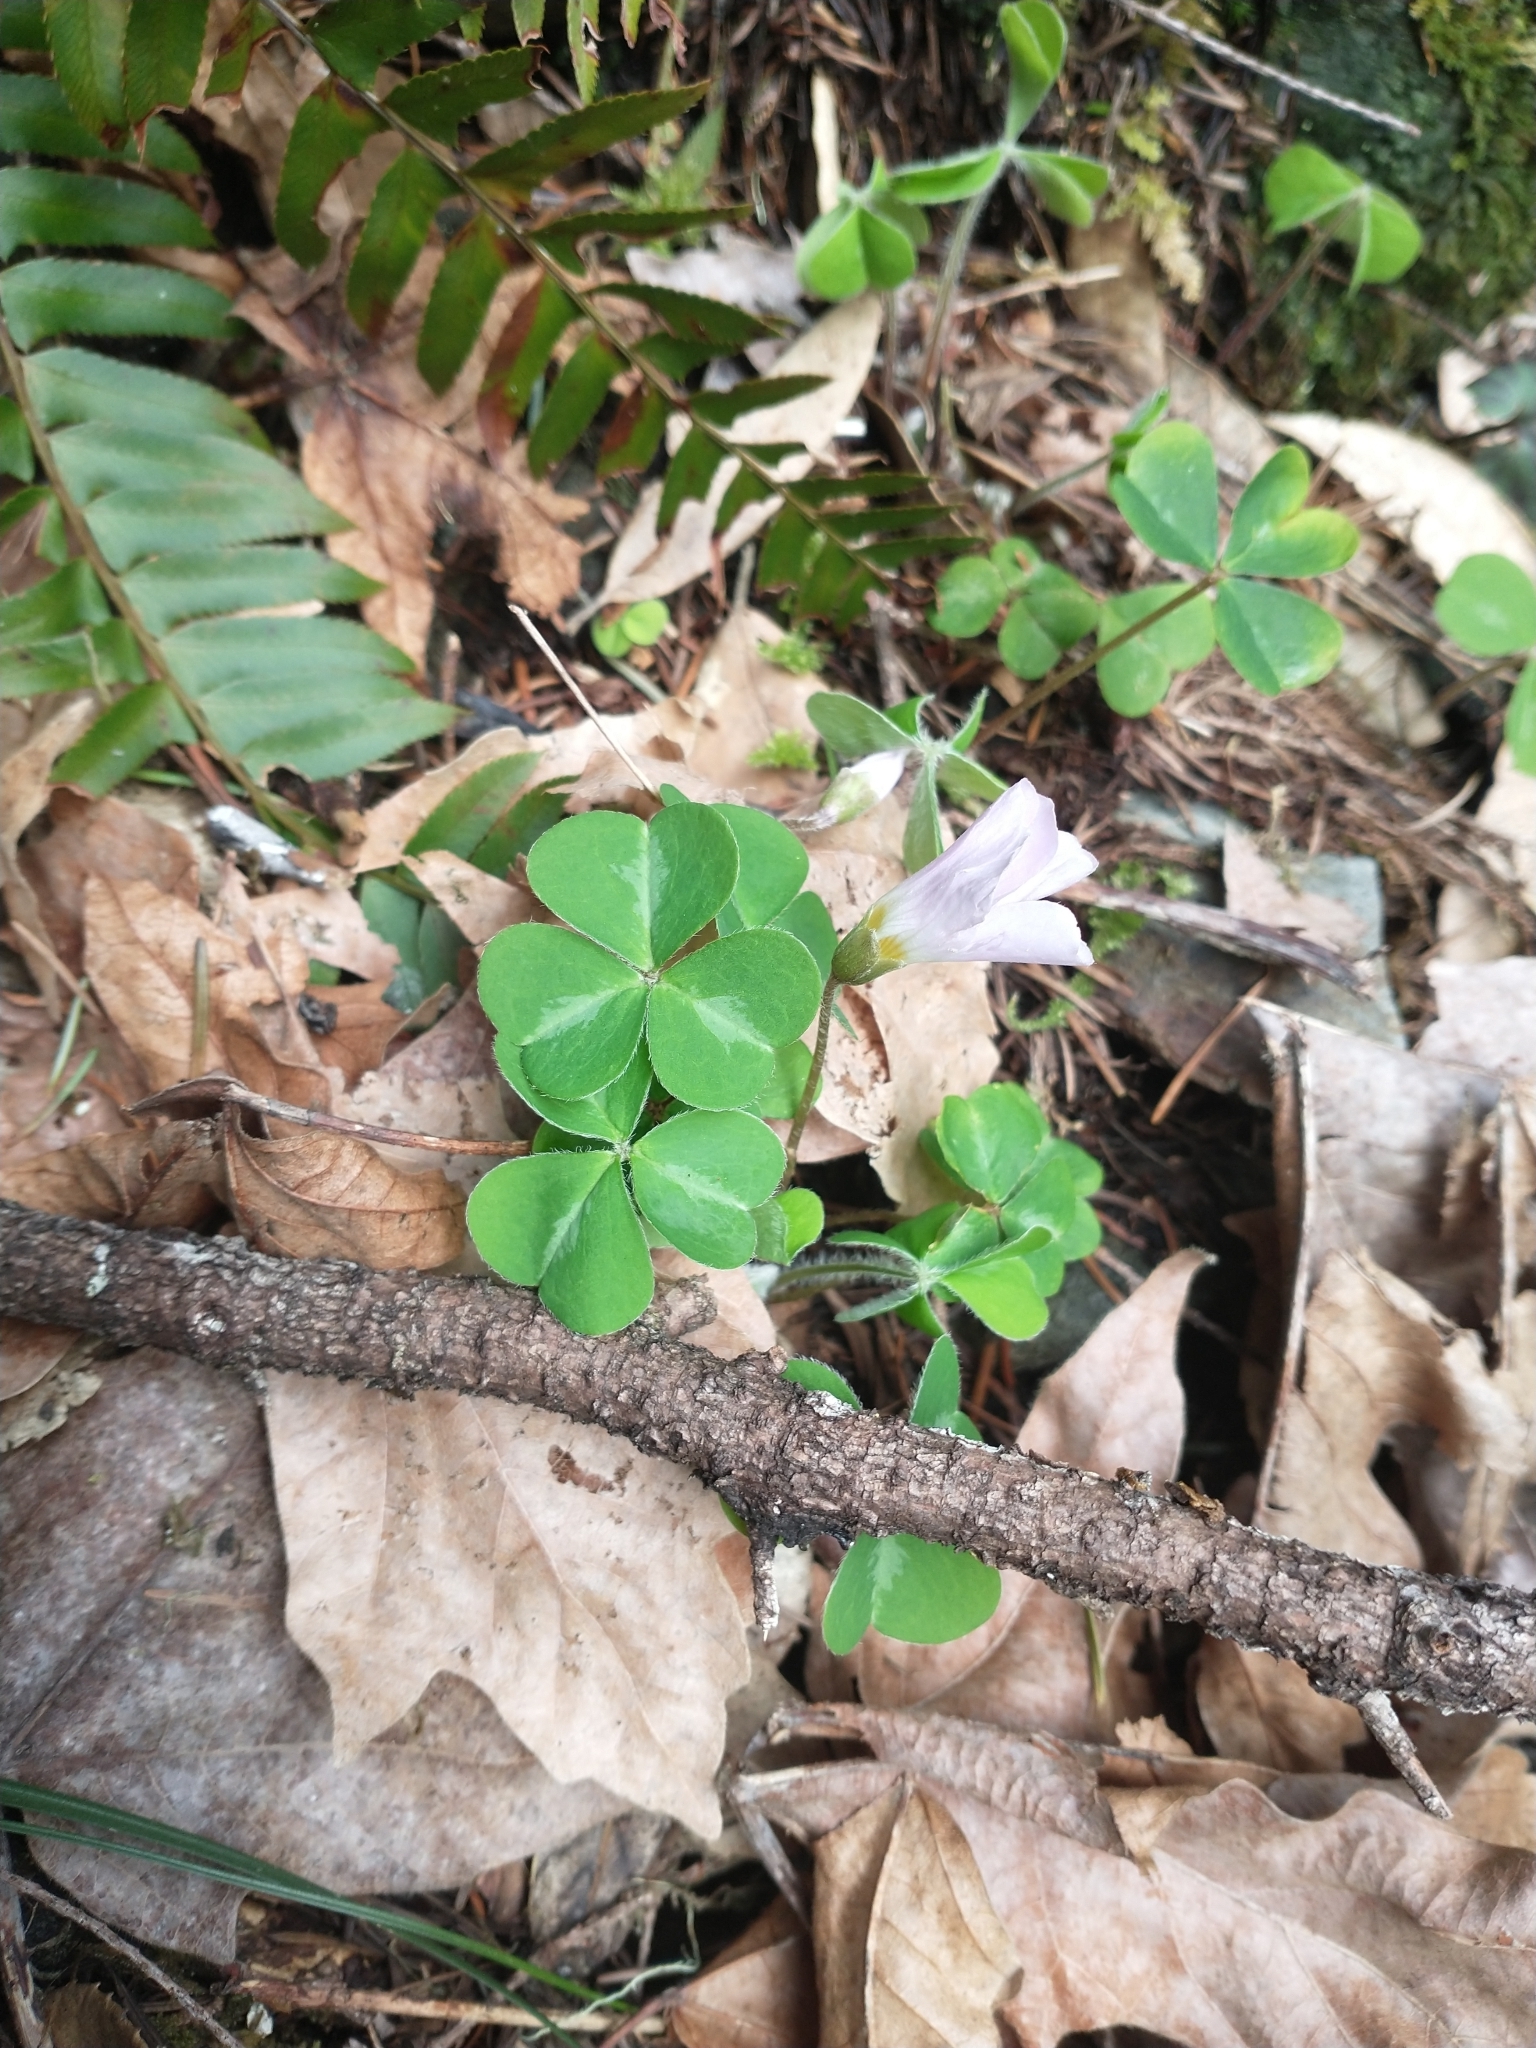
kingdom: Plantae
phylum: Tracheophyta
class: Magnoliopsida
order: Oxalidales
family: Oxalidaceae
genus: Oxalis
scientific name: Oxalis oregana
